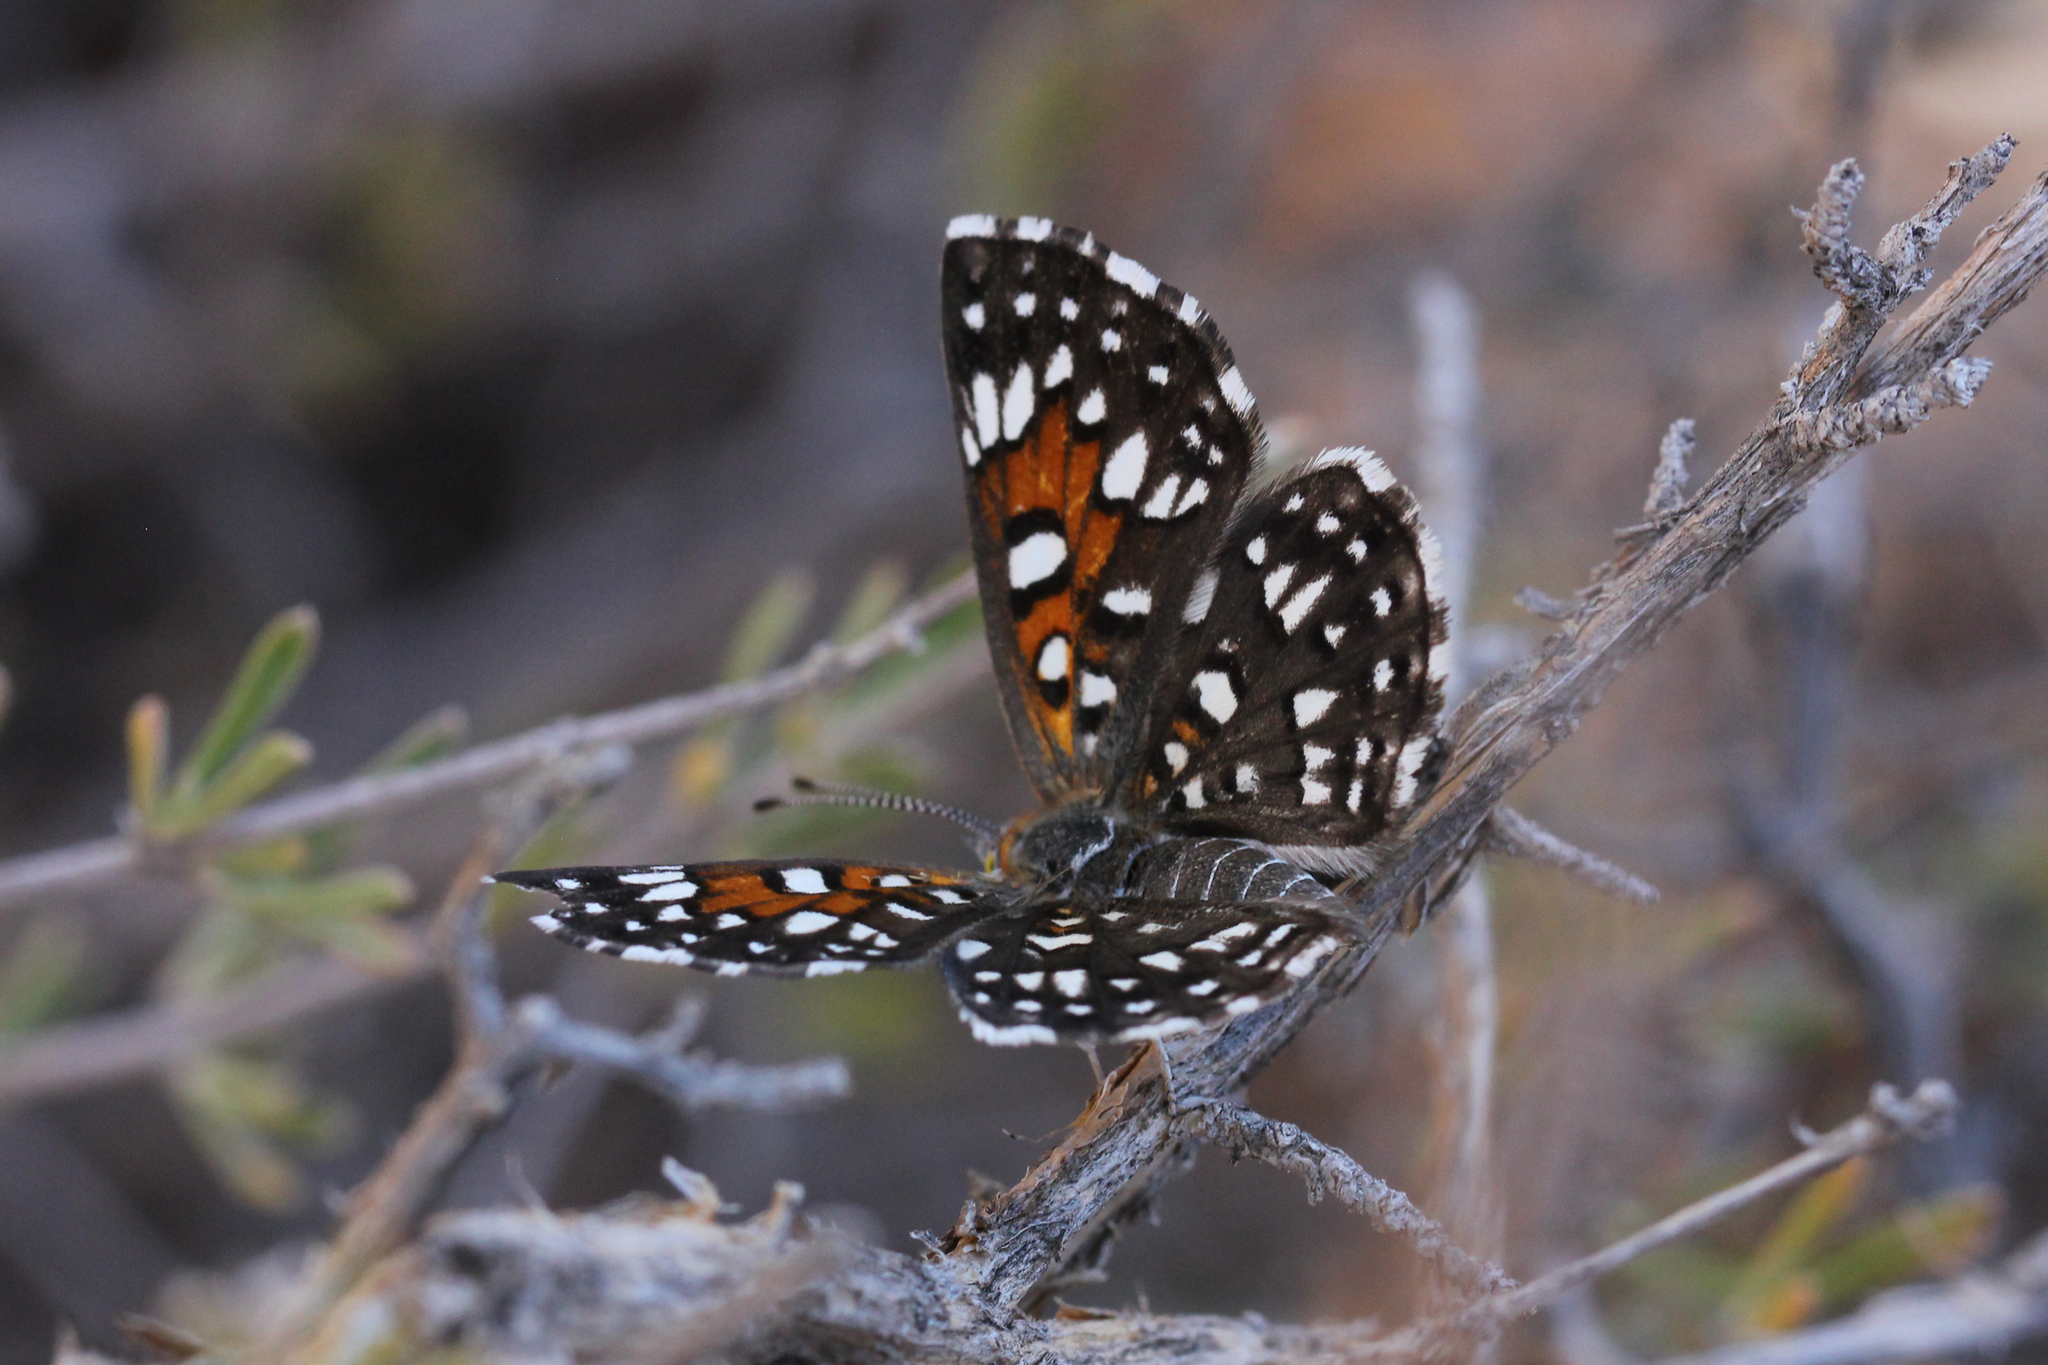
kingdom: Animalia
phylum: Arthropoda
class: Insecta
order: Lepidoptera
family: Riodinidae
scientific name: Riodinidae
